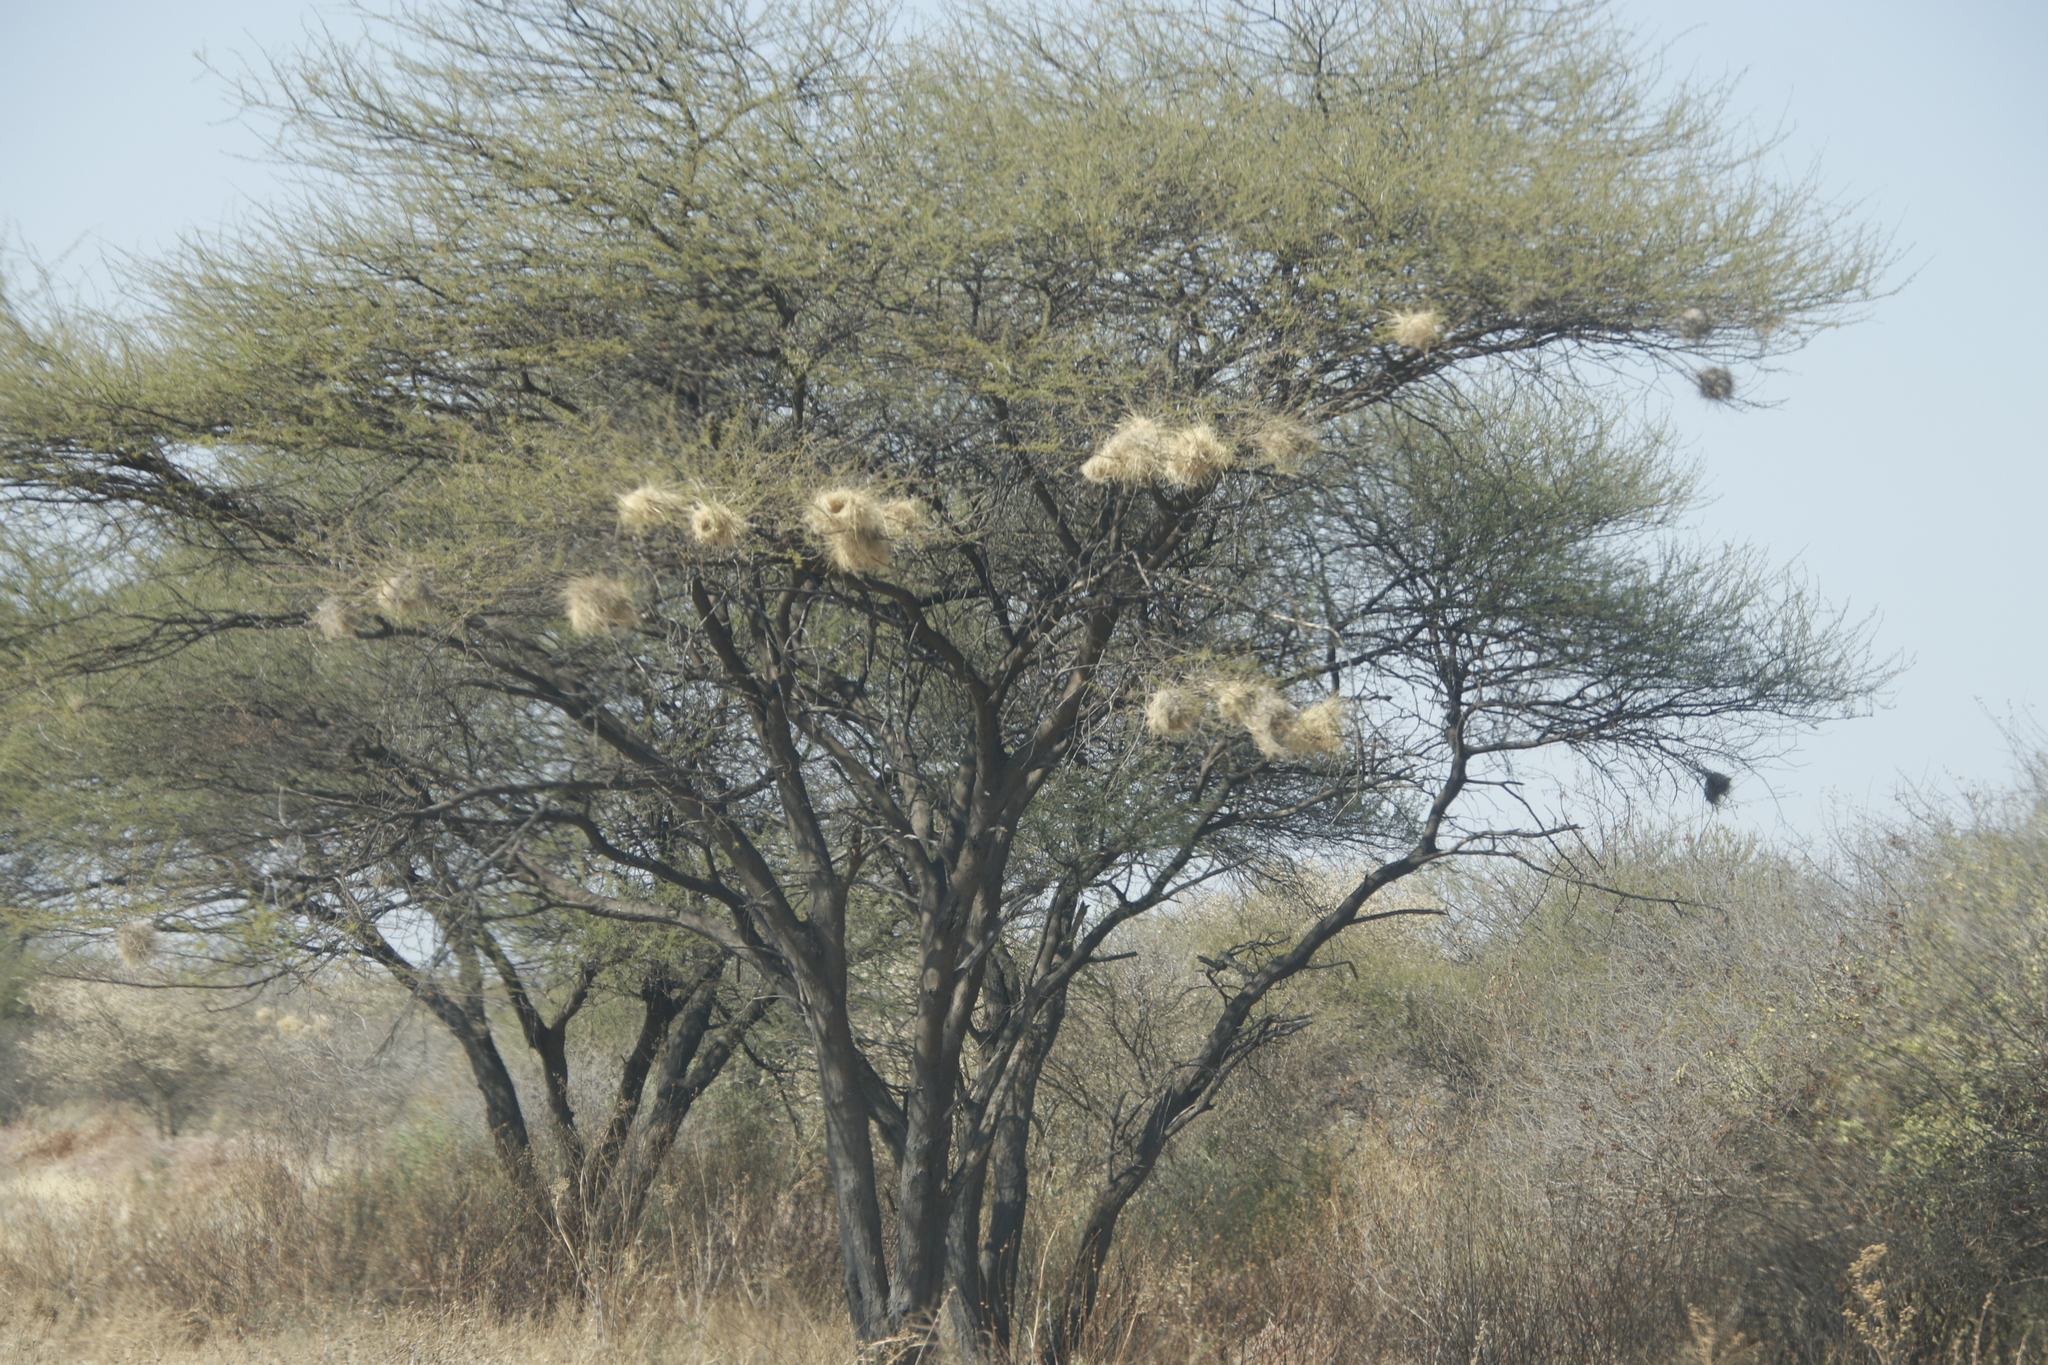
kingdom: Animalia
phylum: Chordata
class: Aves
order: Passeriformes
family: Passeridae
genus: Plocepasser
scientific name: Plocepasser mahali
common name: White-browed sparrow-weaver
